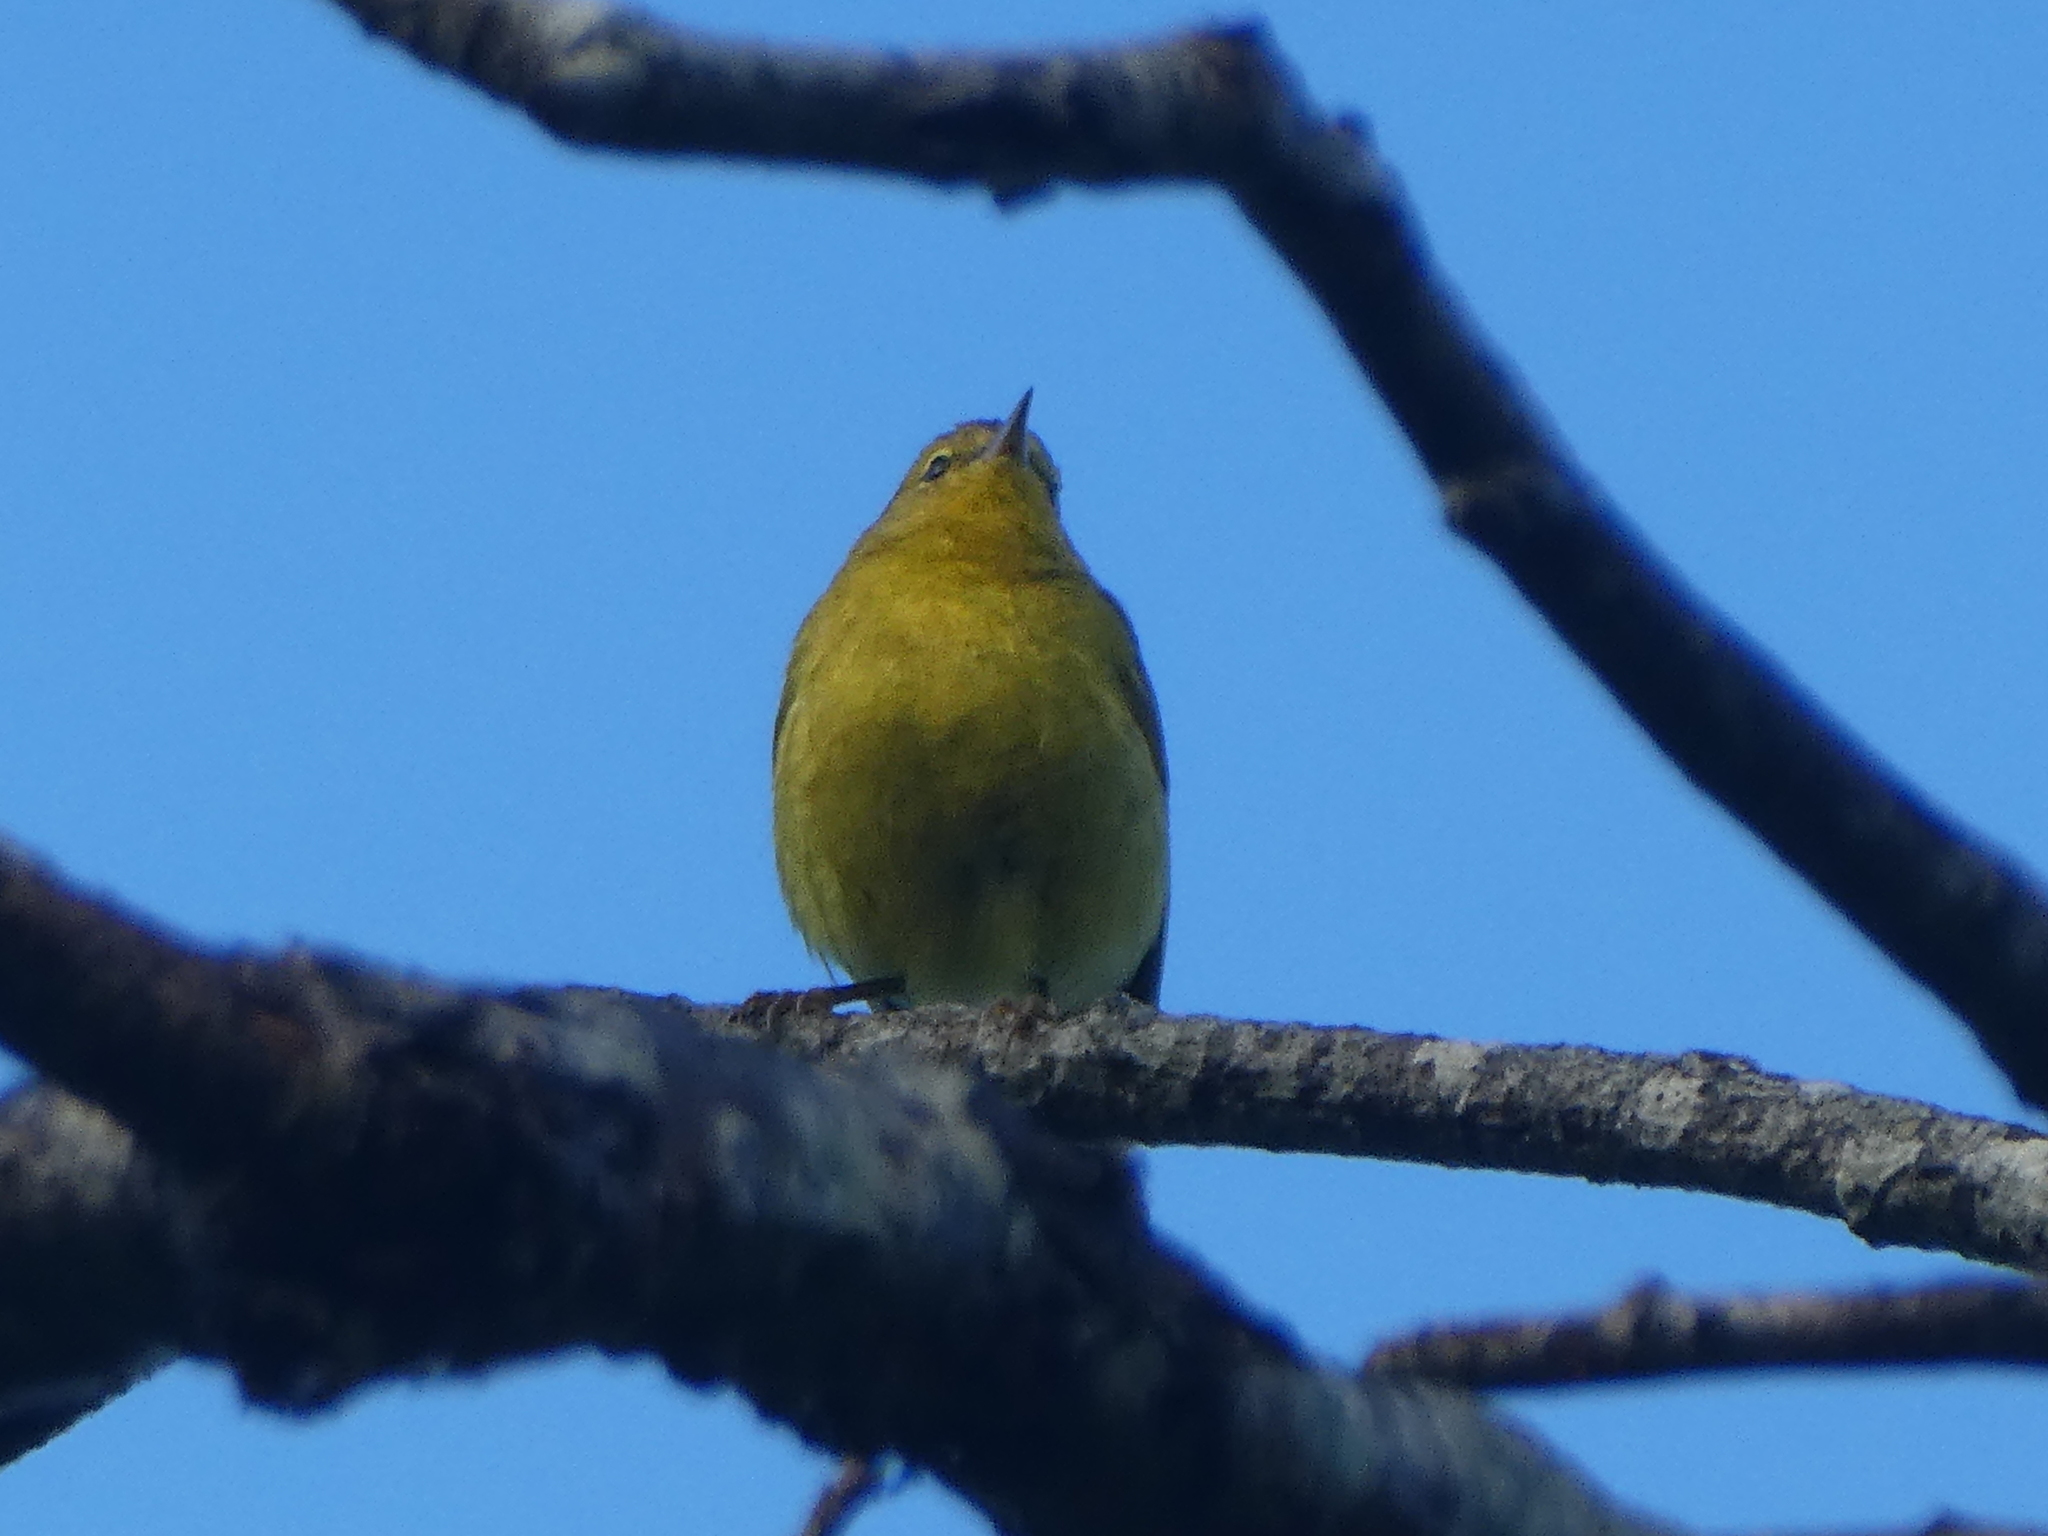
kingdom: Animalia
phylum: Chordata
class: Aves
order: Passeriformes
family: Parulidae
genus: Leiothlypis
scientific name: Leiothlypis celata
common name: Orange-crowned warbler
